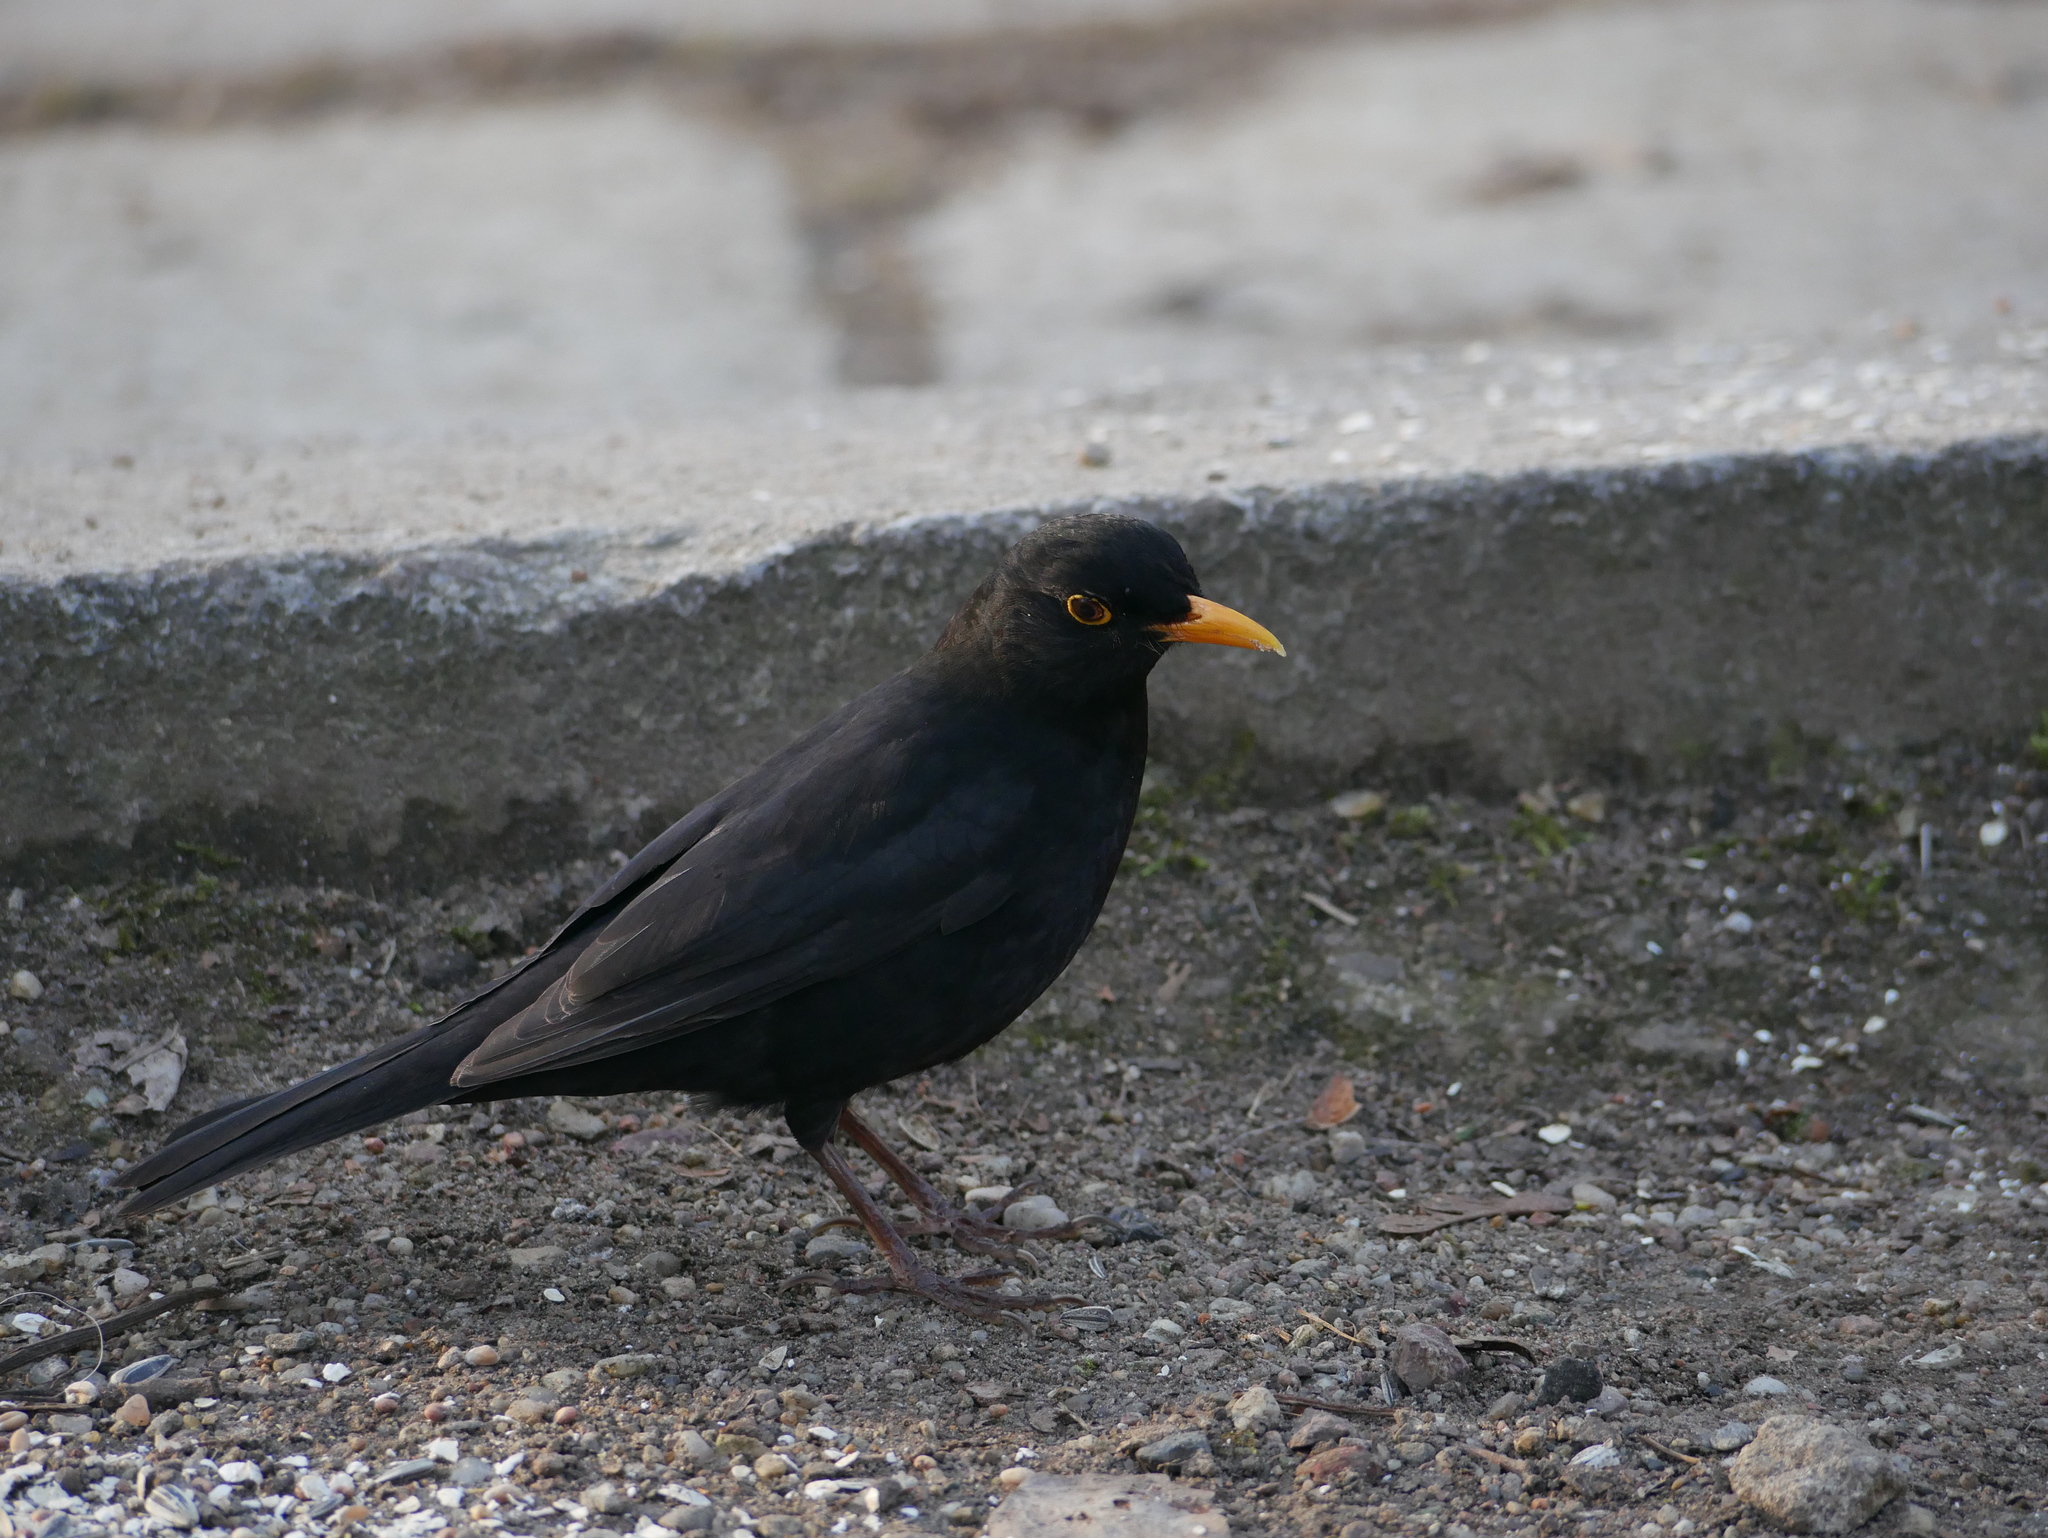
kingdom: Animalia
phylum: Chordata
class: Aves
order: Passeriformes
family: Turdidae
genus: Turdus
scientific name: Turdus merula
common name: Common blackbird
